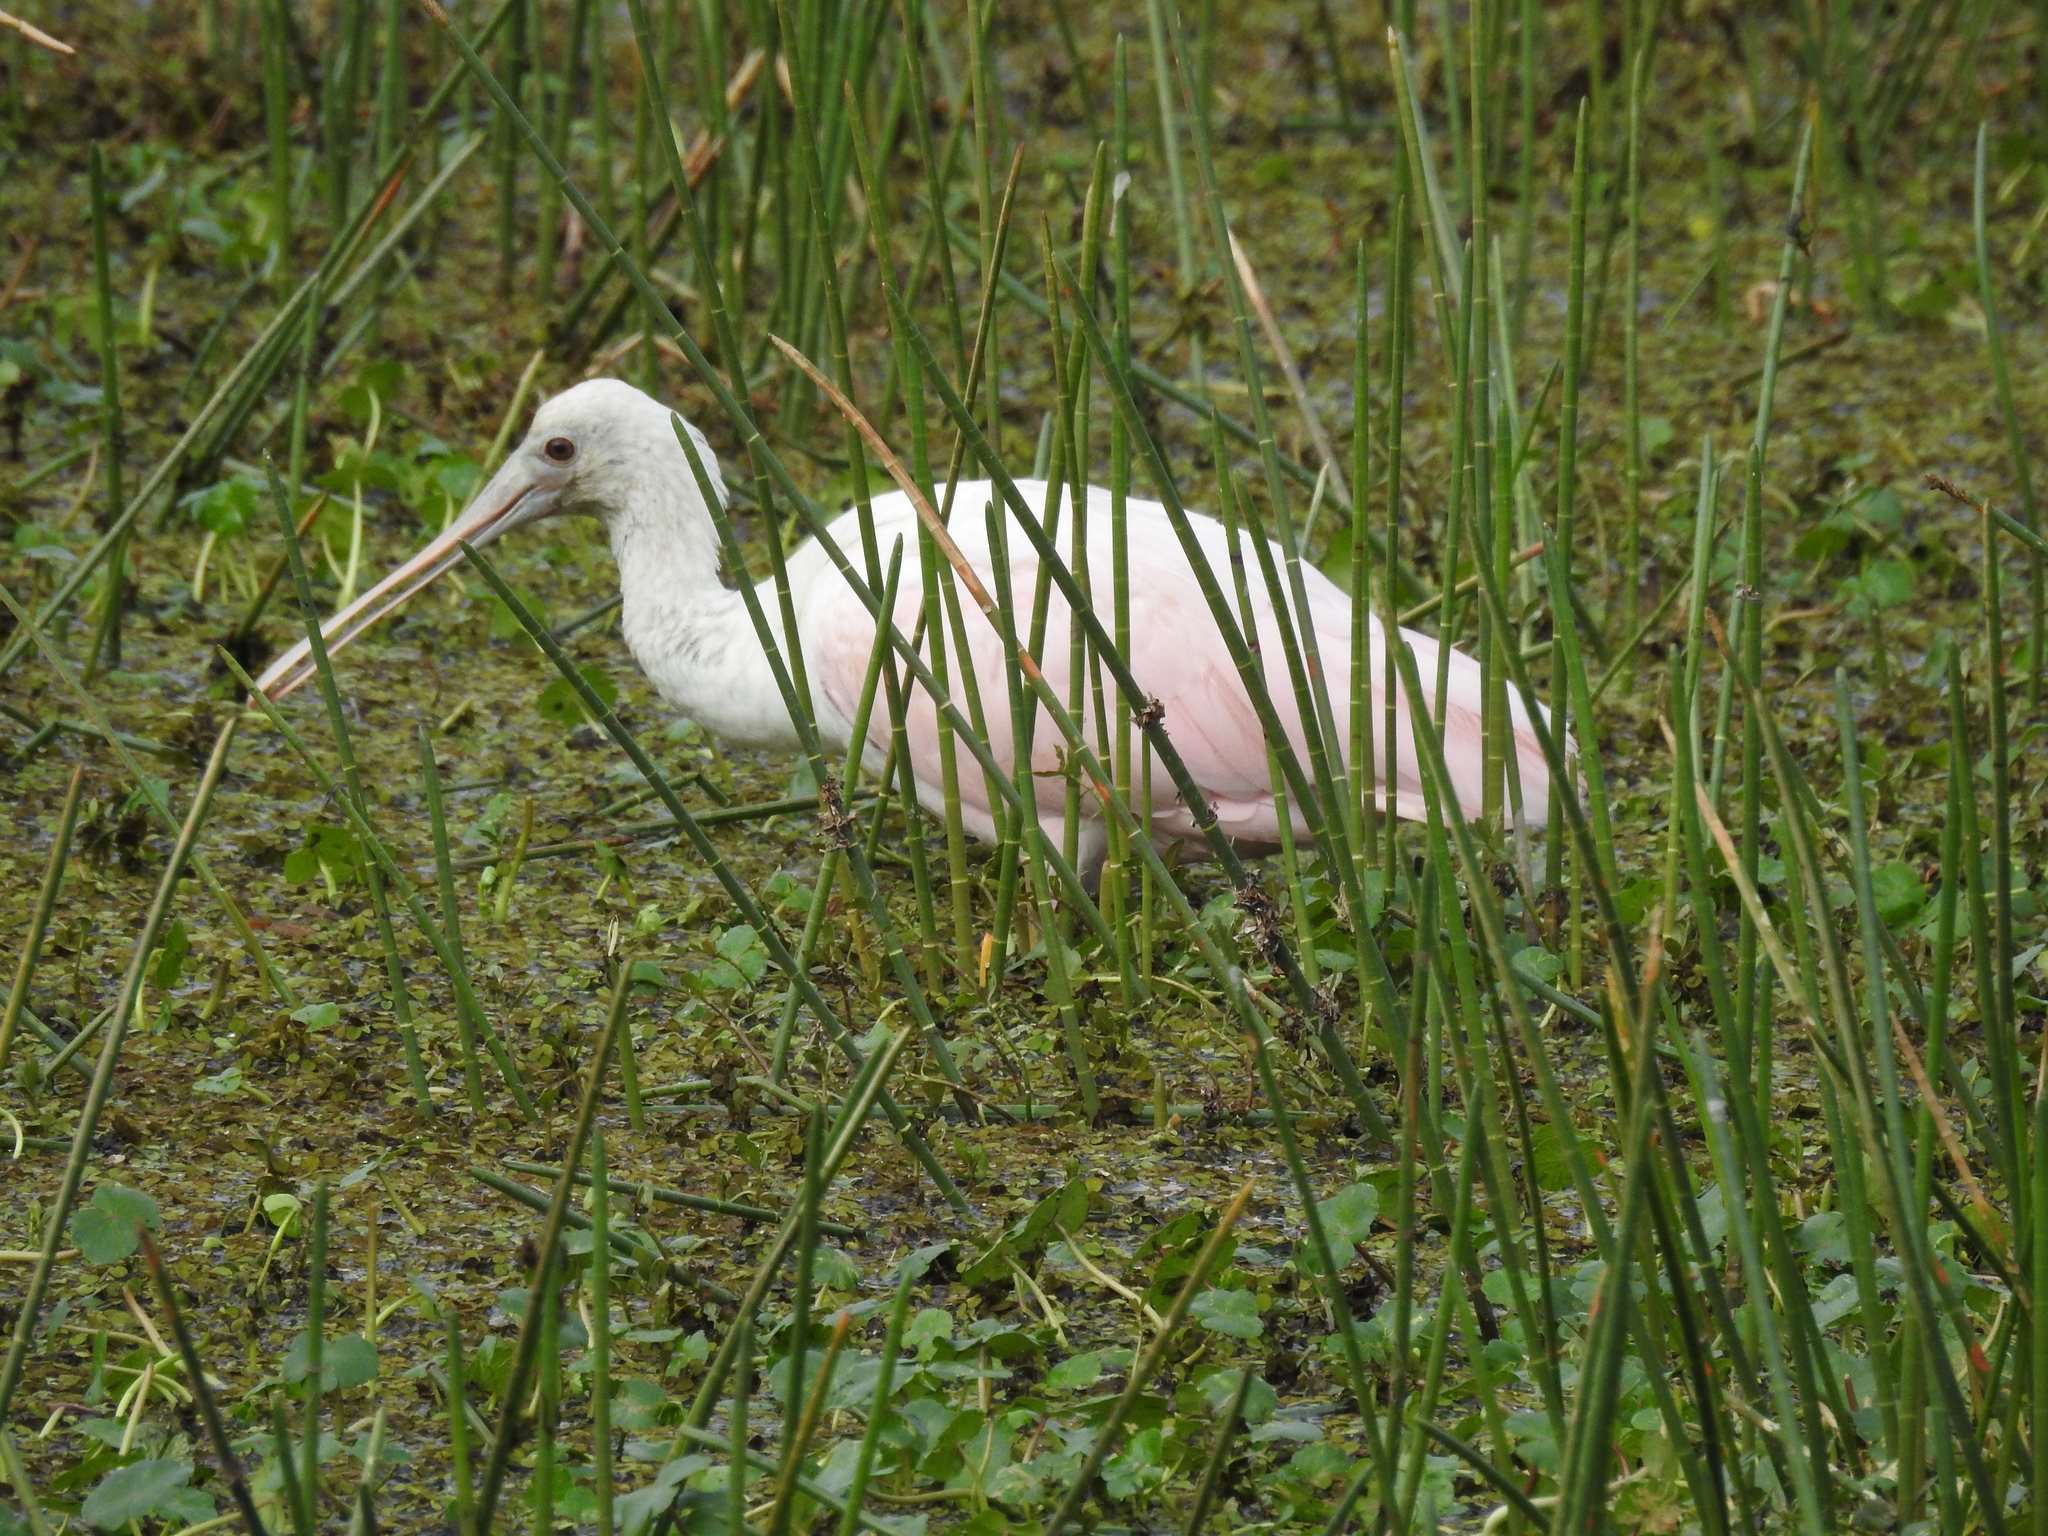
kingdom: Animalia
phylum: Chordata
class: Aves
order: Pelecaniformes
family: Threskiornithidae
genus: Platalea
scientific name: Platalea ajaja
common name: Roseate spoonbill
